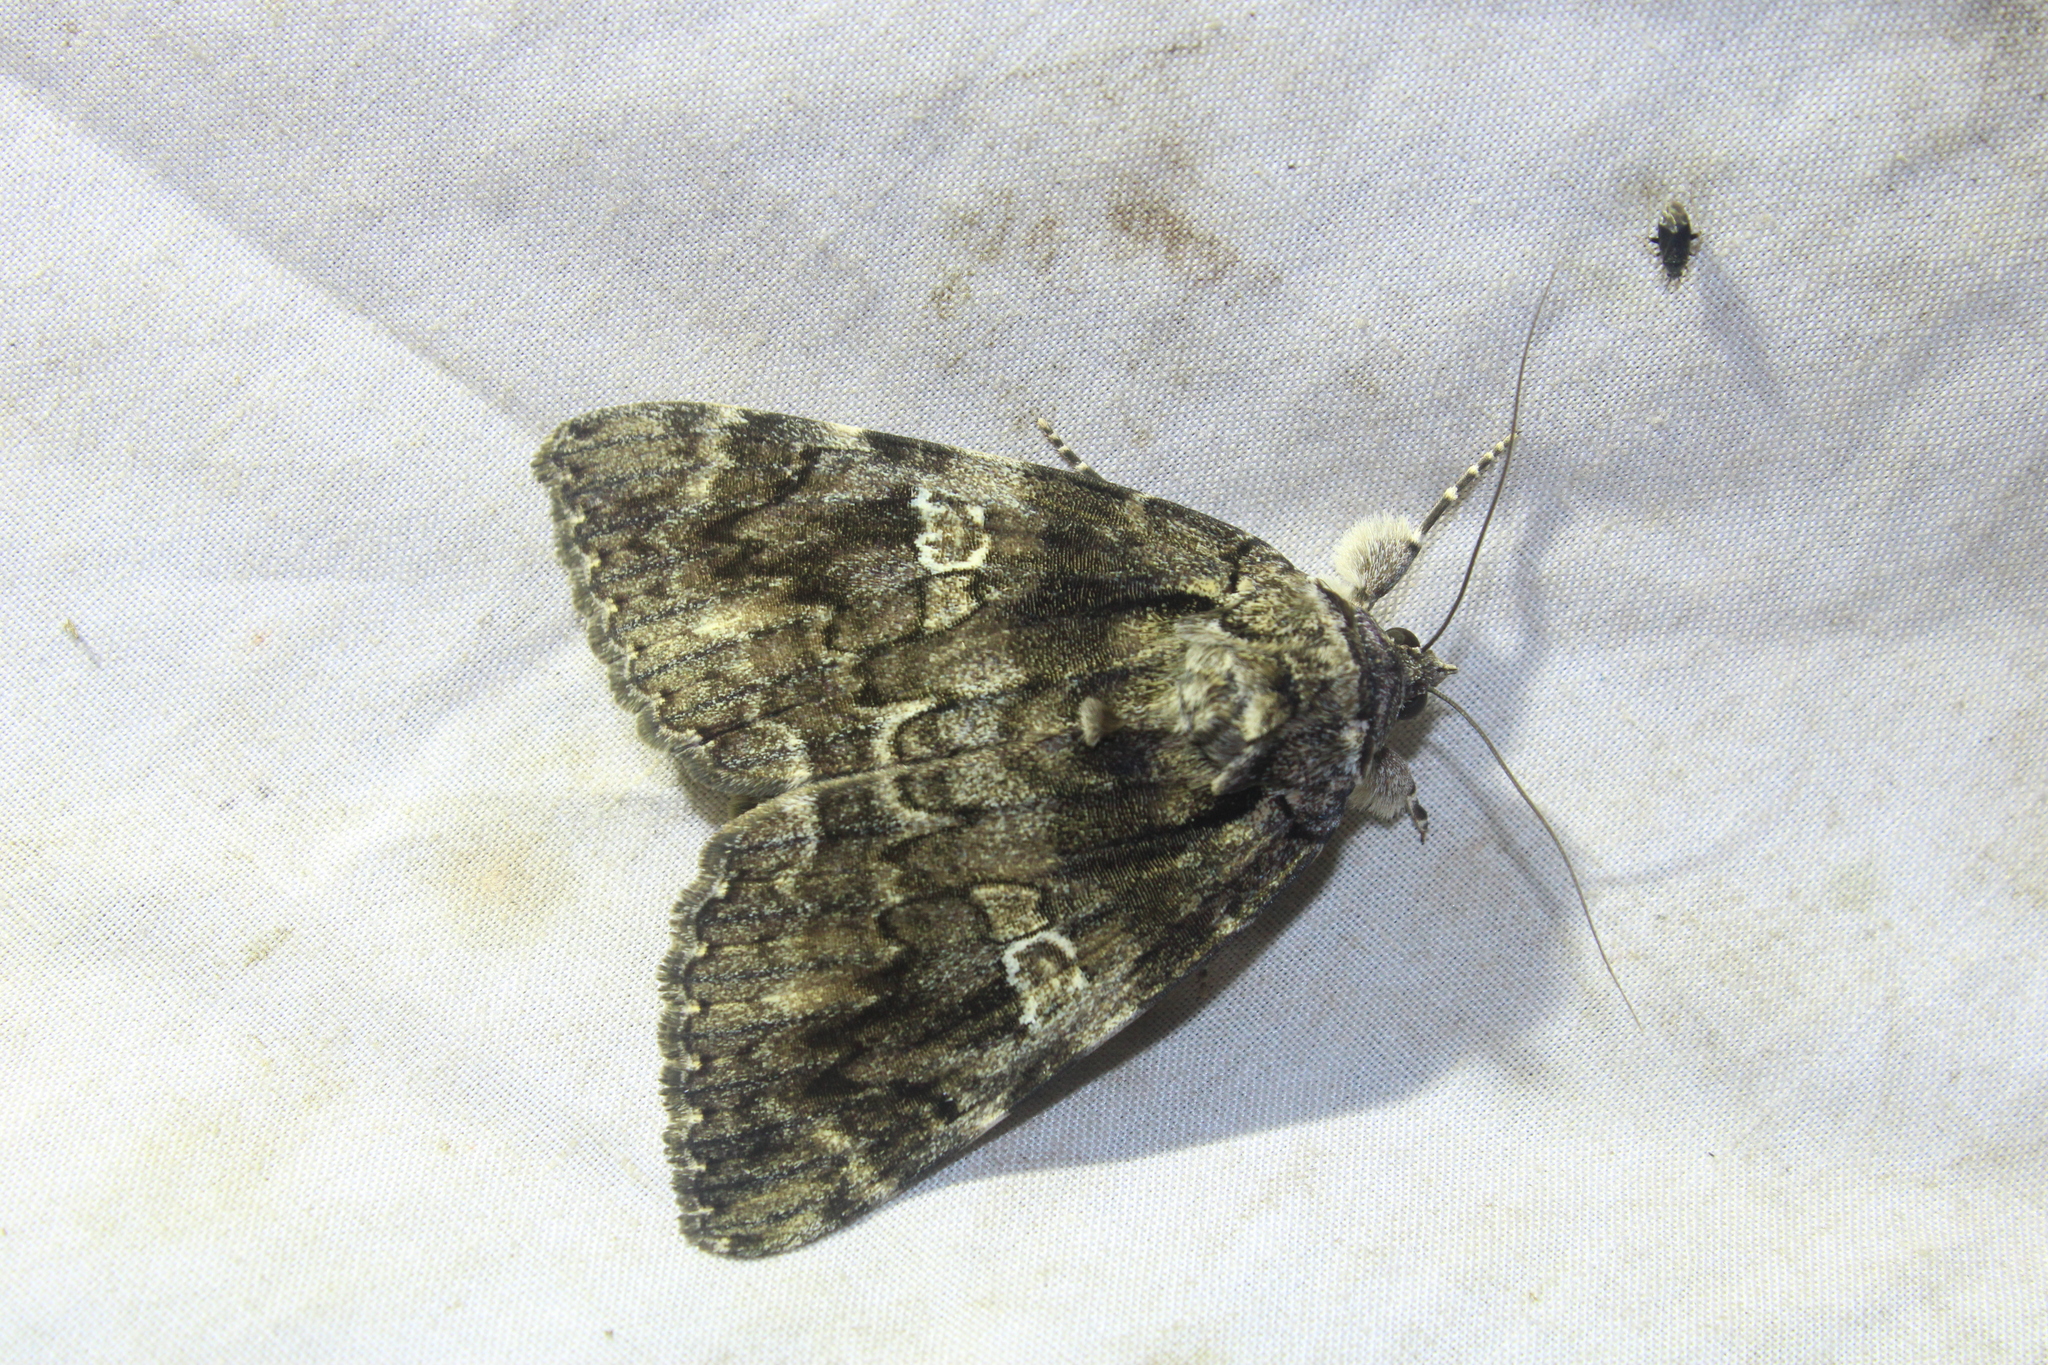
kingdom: Animalia
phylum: Arthropoda
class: Insecta
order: Lepidoptera
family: Erebidae
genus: Catocala
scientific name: Catocala ilia
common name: Ilia underwing
